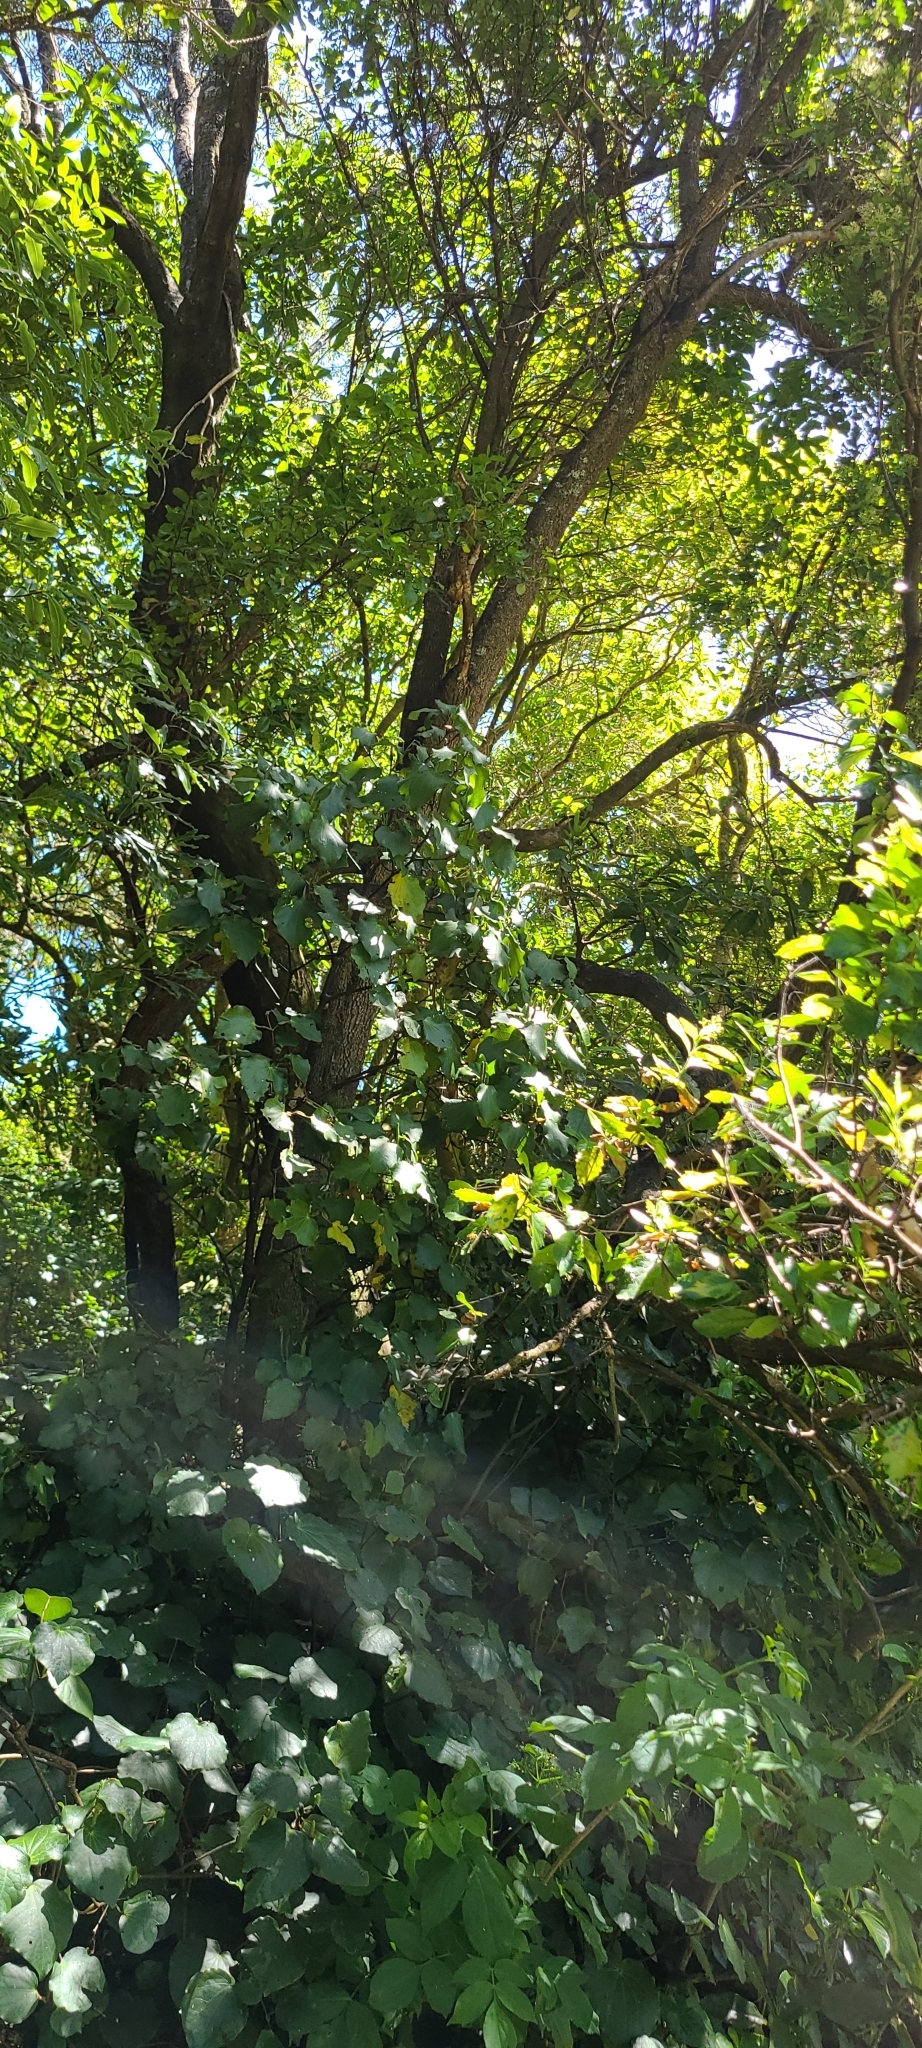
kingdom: Plantae
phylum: Tracheophyta
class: Magnoliopsida
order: Apiales
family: Pennantiaceae
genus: Pennantia
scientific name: Pennantia corymbosa
